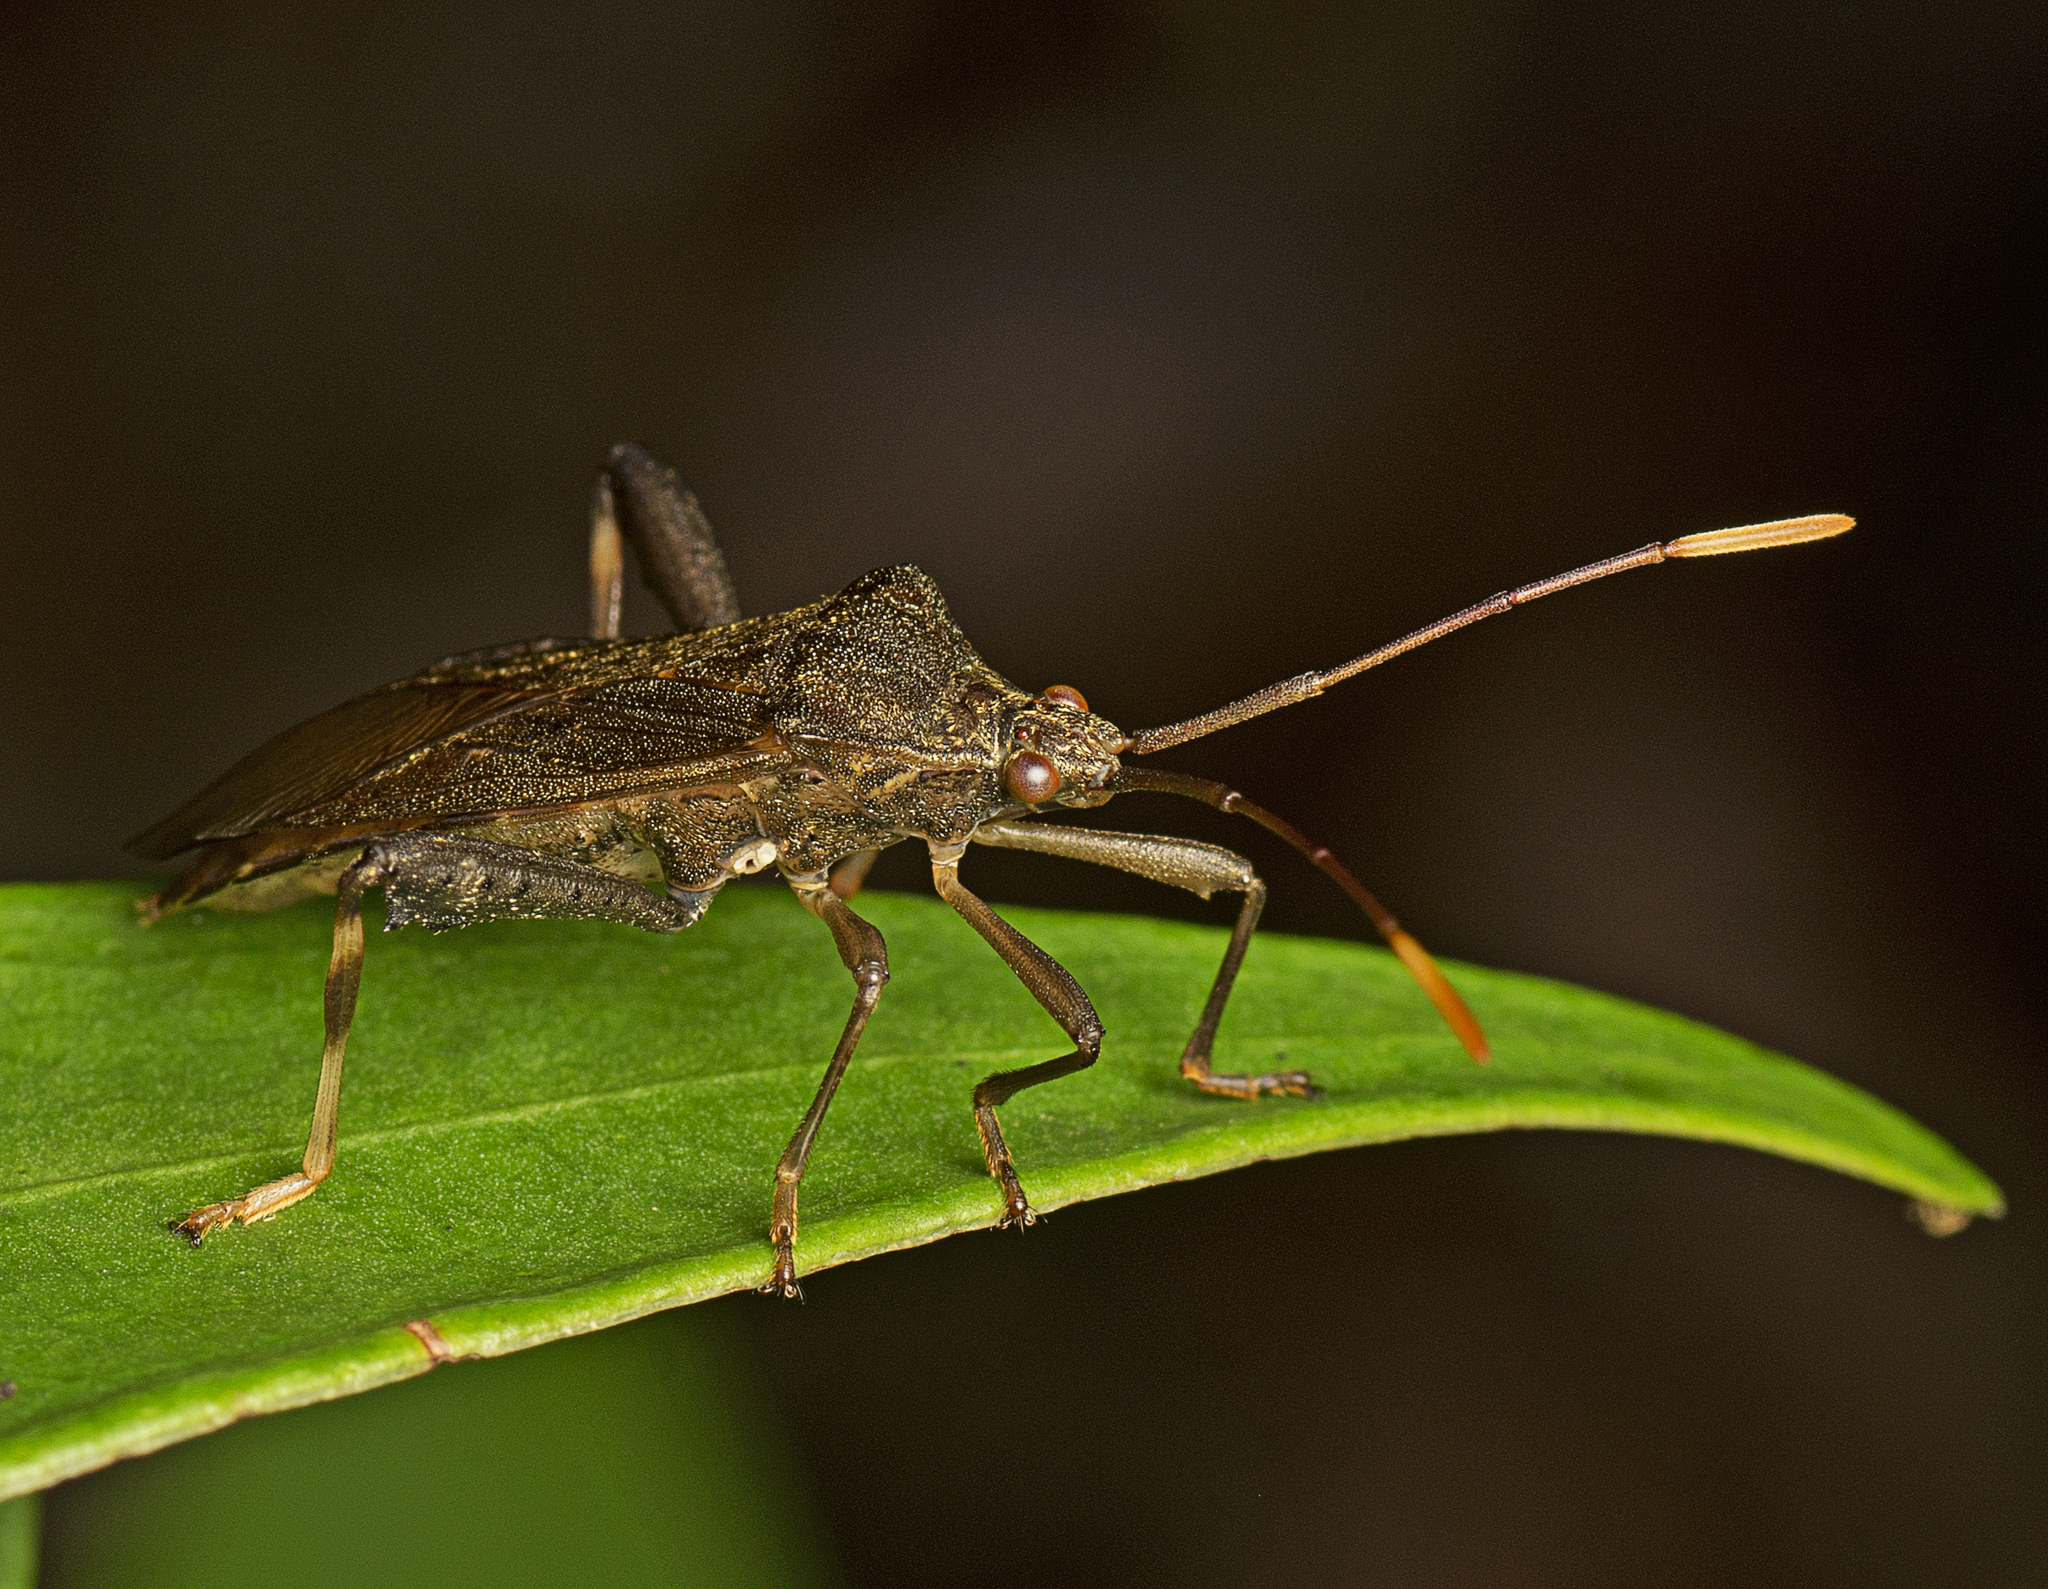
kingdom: Animalia
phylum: Arthropoda
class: Insecta
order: Hemiptera
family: Coreidae
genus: Tambourina
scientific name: Tambourina kelsalli
